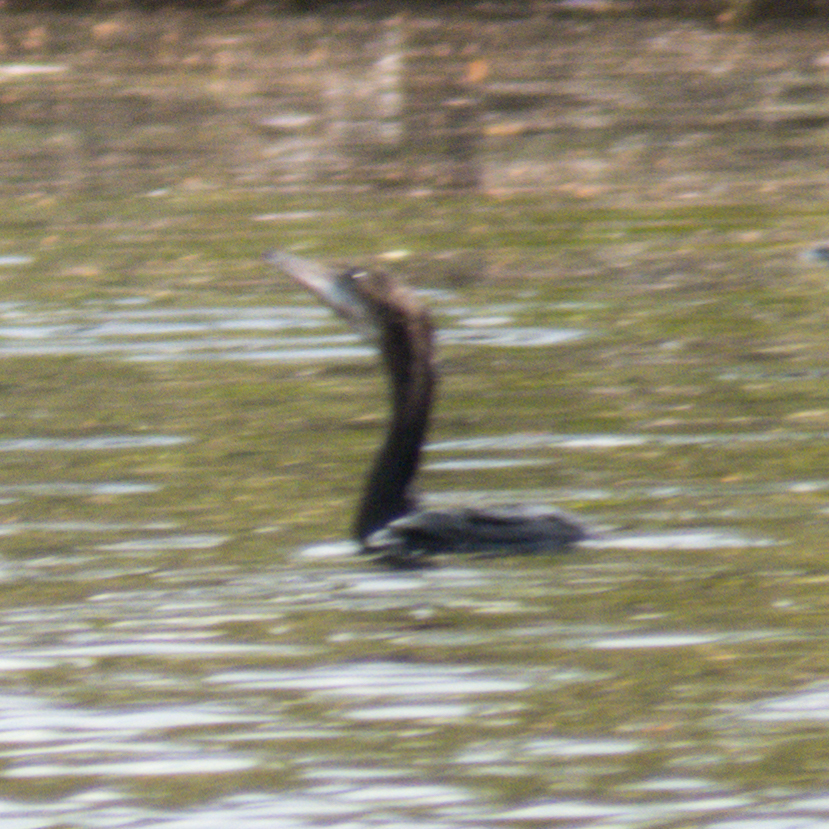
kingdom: Animalia
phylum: Chordata
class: Aves
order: Suliformes
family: Phalacrocoracidae
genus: Microcarbo
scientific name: Microcarbo niger
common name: Little cormorant
